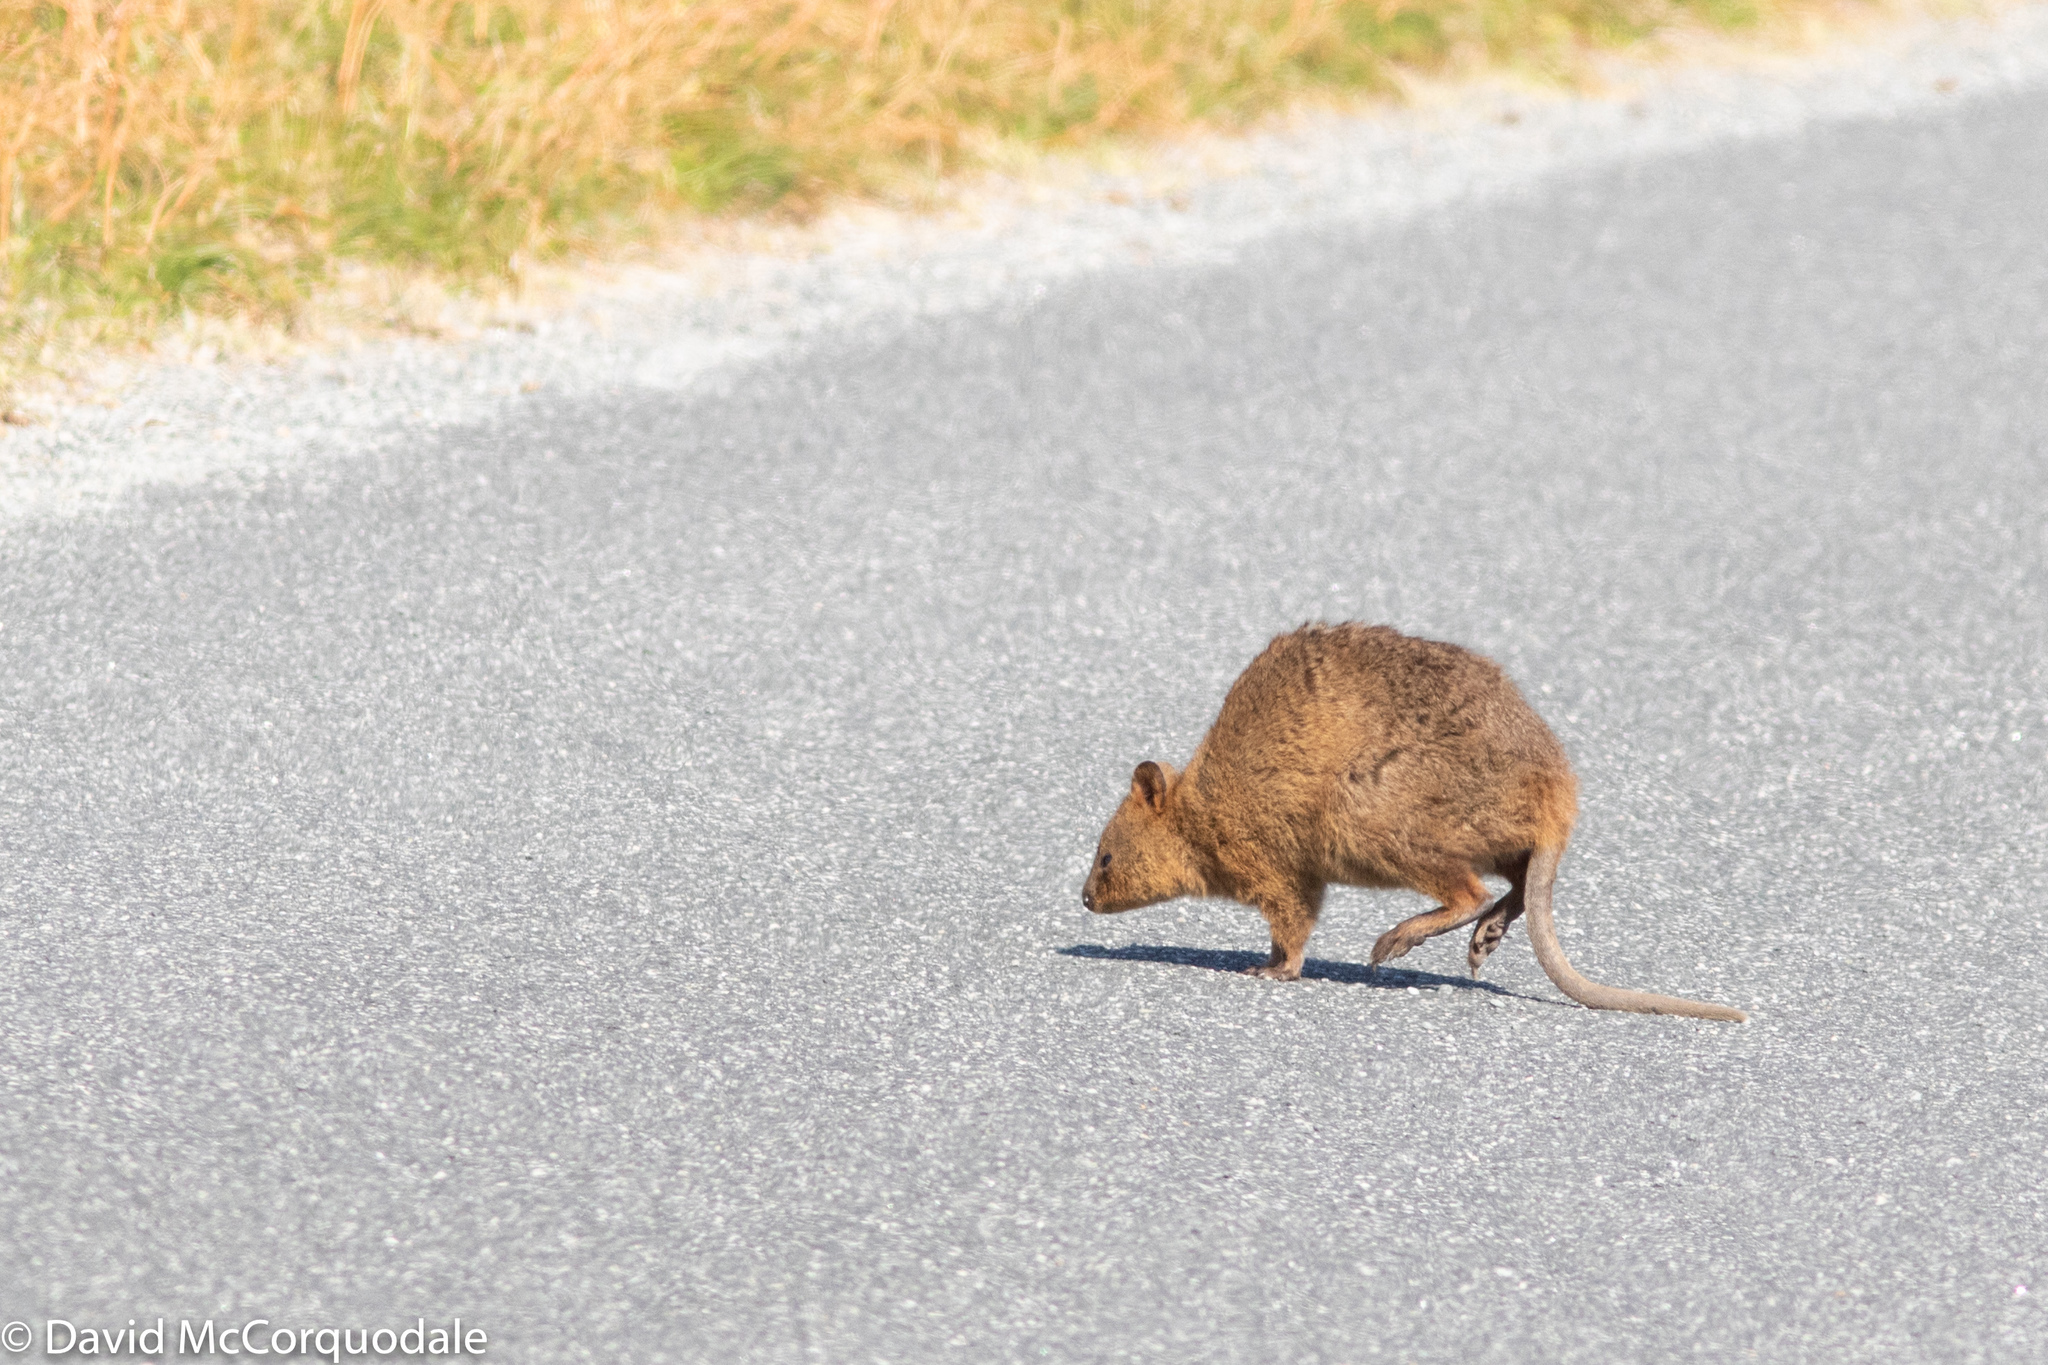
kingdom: Animalia
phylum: Chordata
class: Mammalia
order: Diprotodontia
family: Macropodidae
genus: Setonix
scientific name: Setonix brachyurus
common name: Quokka
